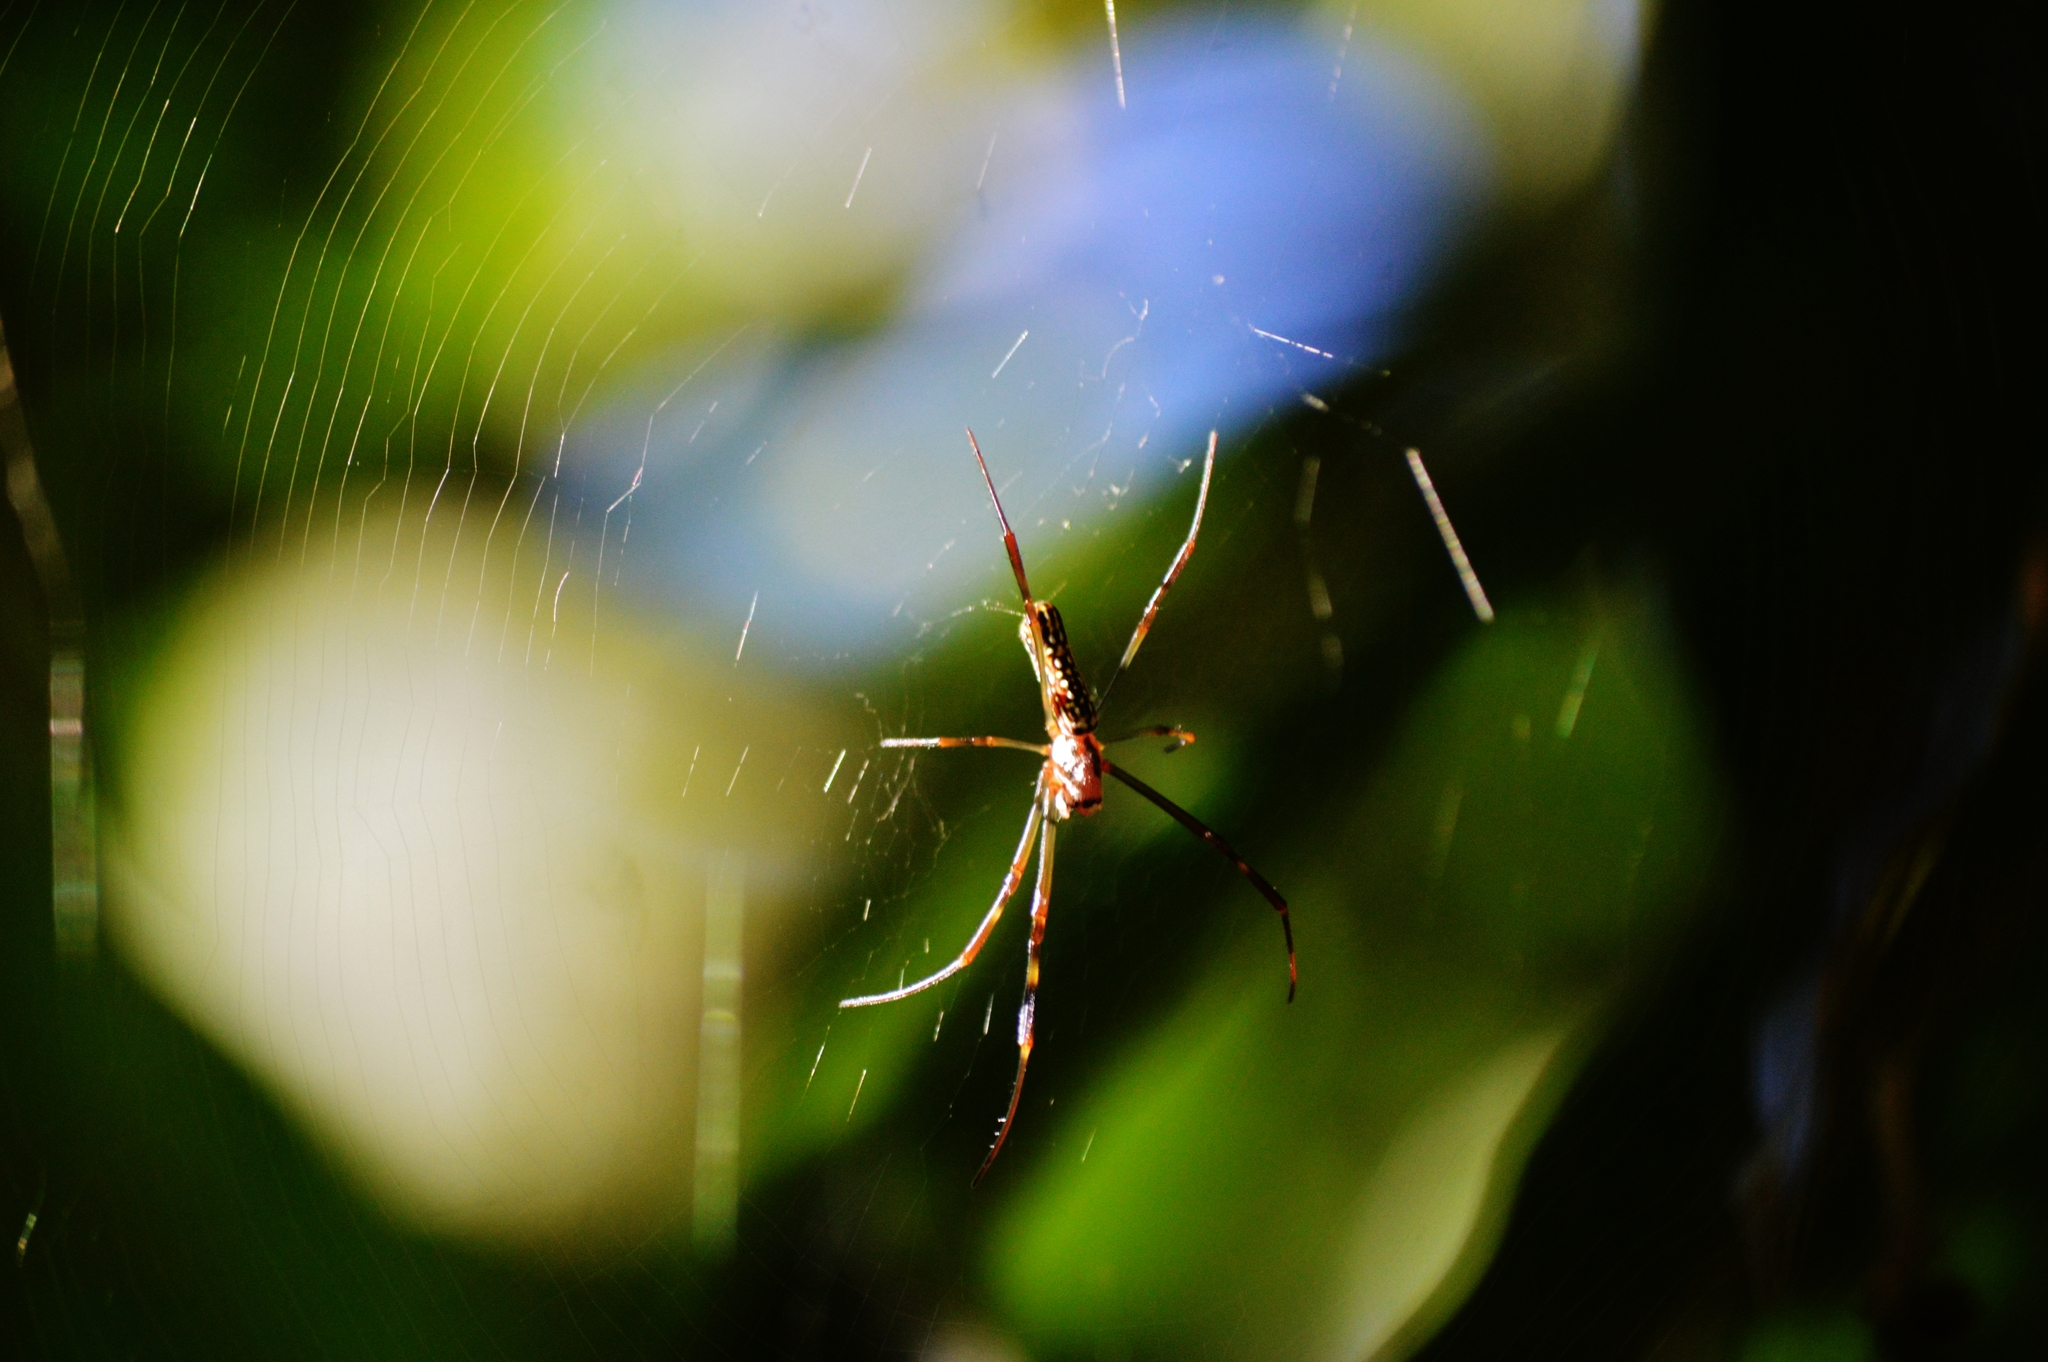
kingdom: Animalia
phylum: Arthropoda
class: Arachnida
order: Araneae
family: Araneidae
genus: Trichonephila
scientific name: Trichonephila clavipes
